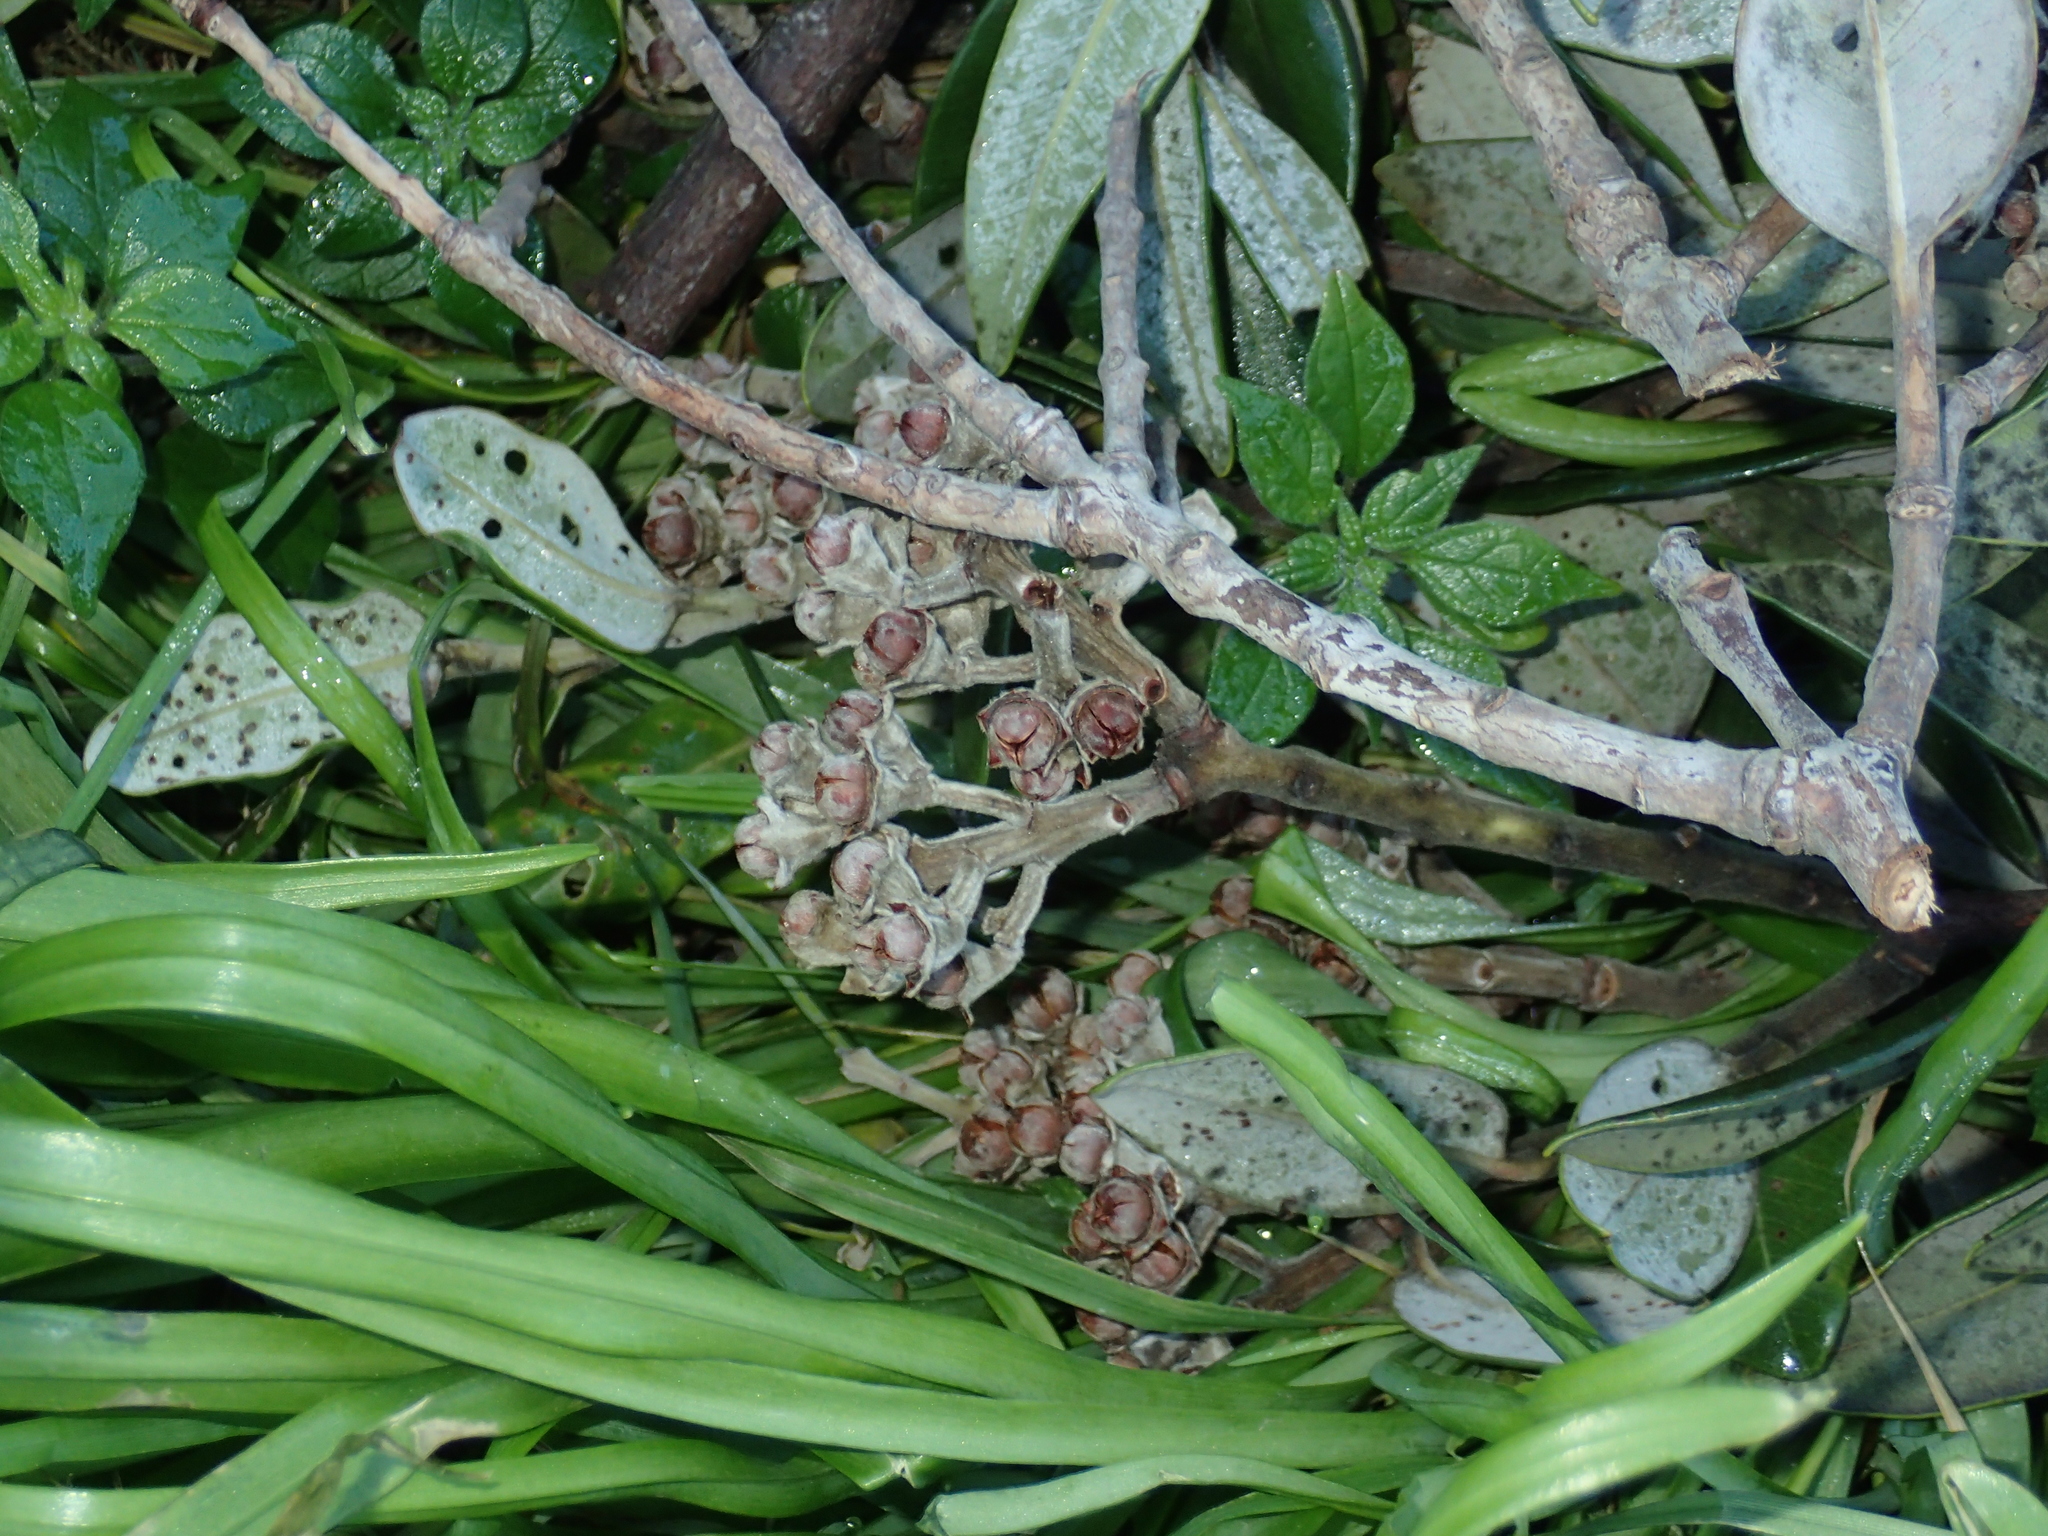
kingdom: Plantae
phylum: Tracheophyta
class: Magnoliopsida
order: Myrtales
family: Myrtaceae
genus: Metrosideros
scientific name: Metrosideros excelsa
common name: New zealand christmastree
